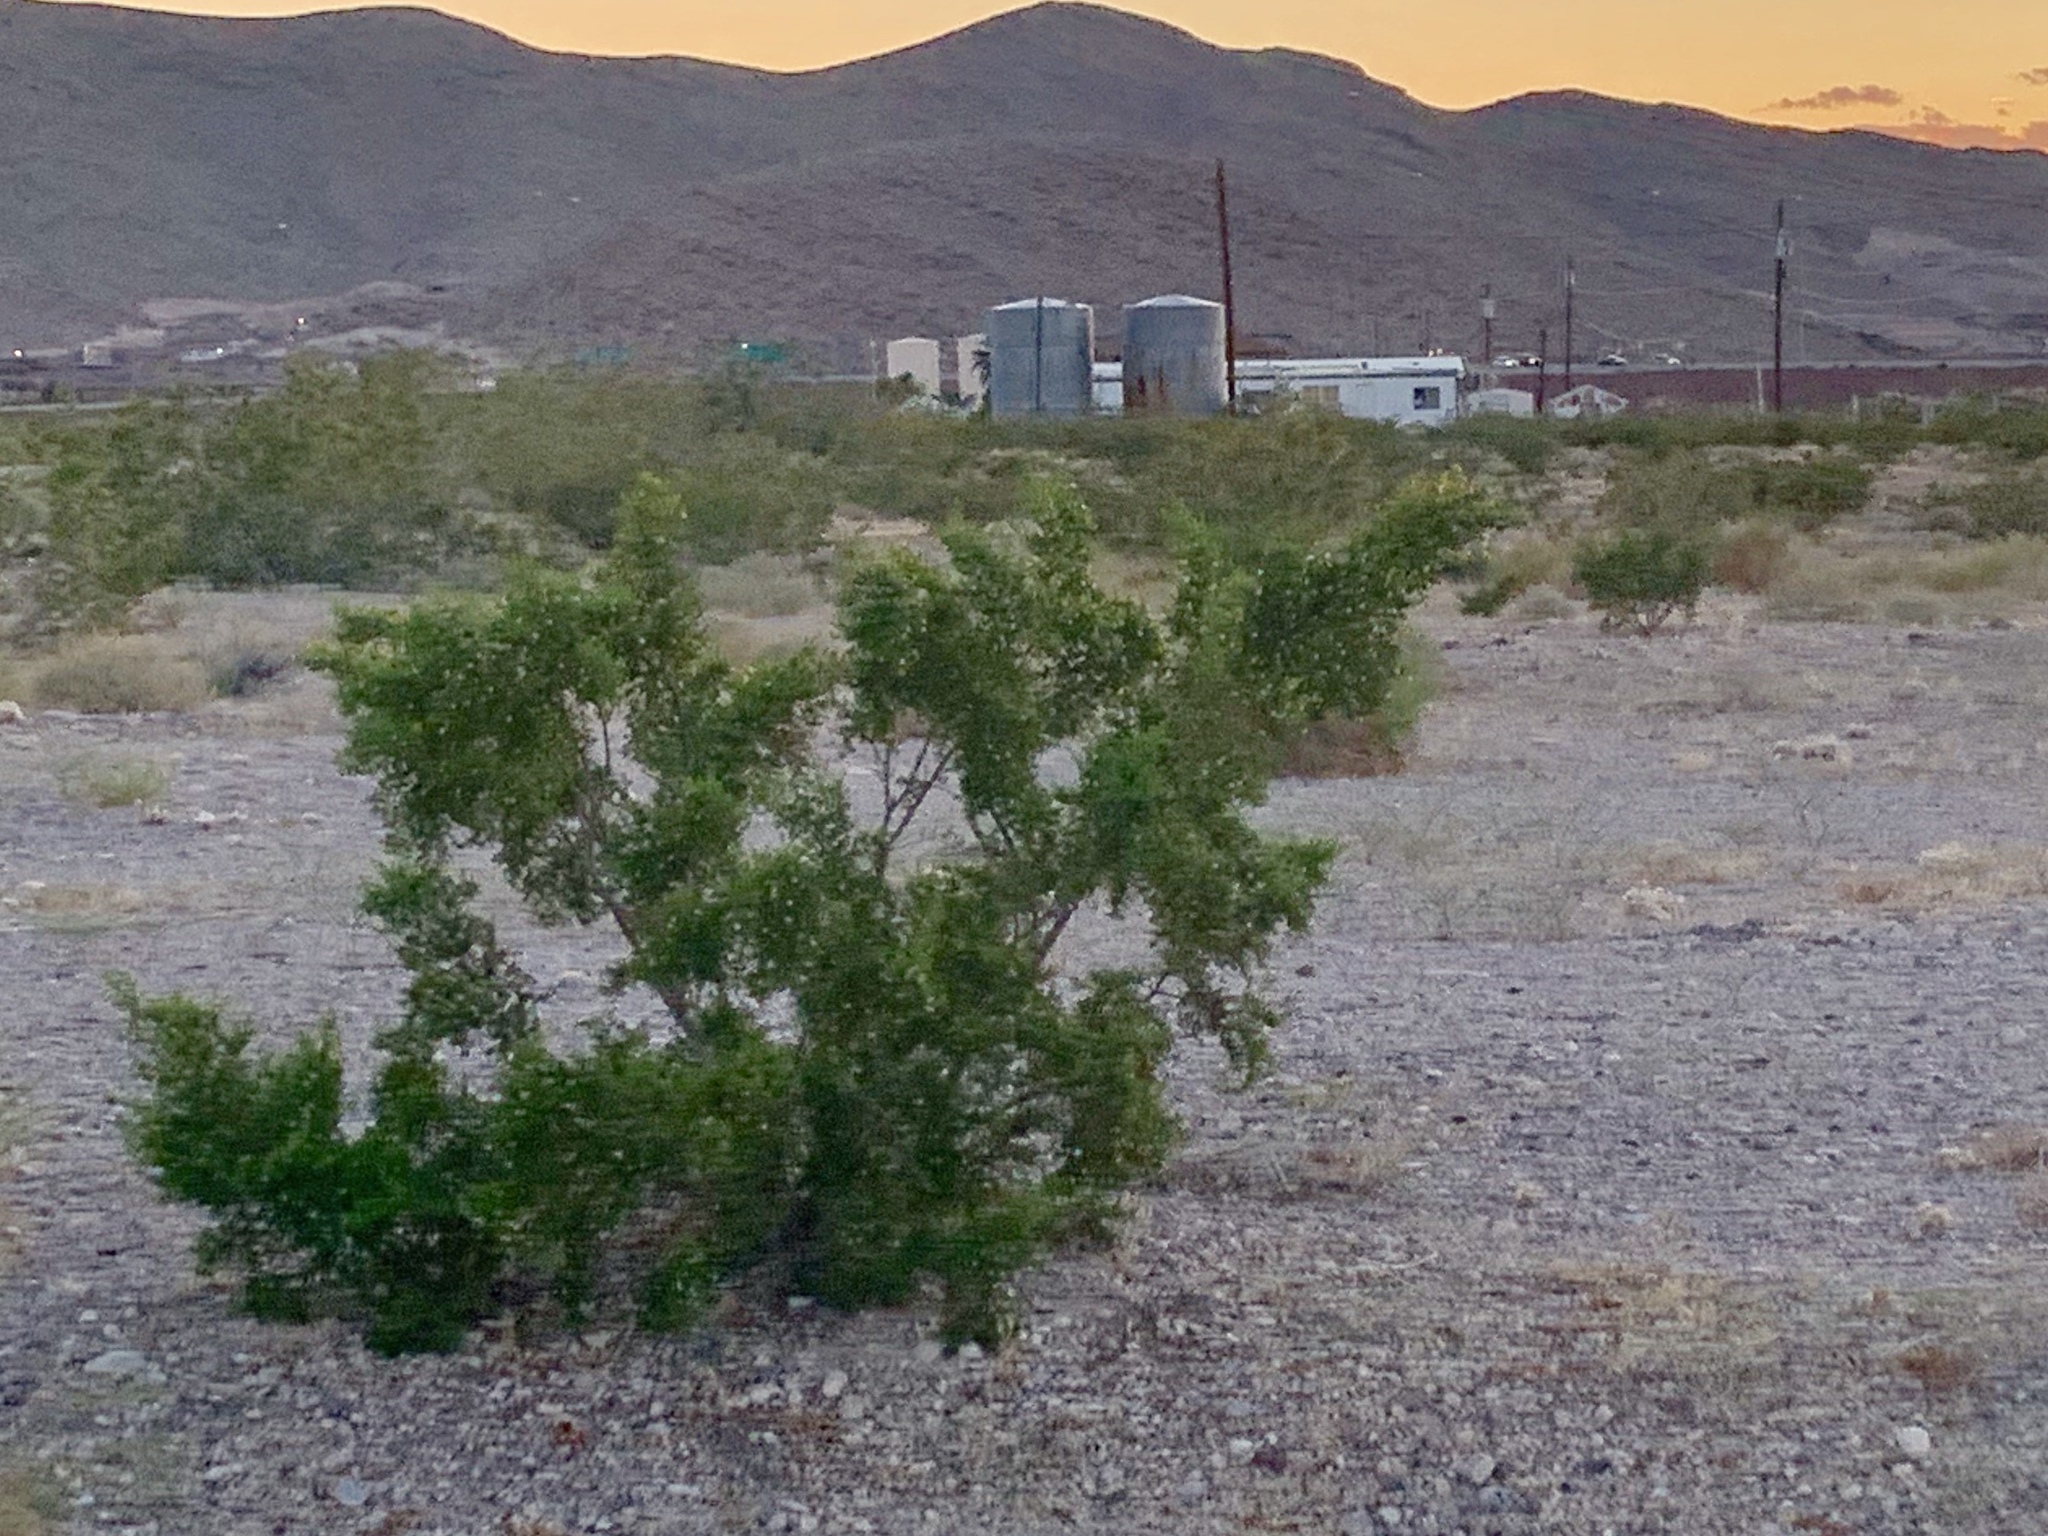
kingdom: Plantae
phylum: Tracheophyta
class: Magnoliopsida
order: Zygophyllales
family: Zygophyllaceae
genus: Larrea
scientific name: Larrea tridentata
